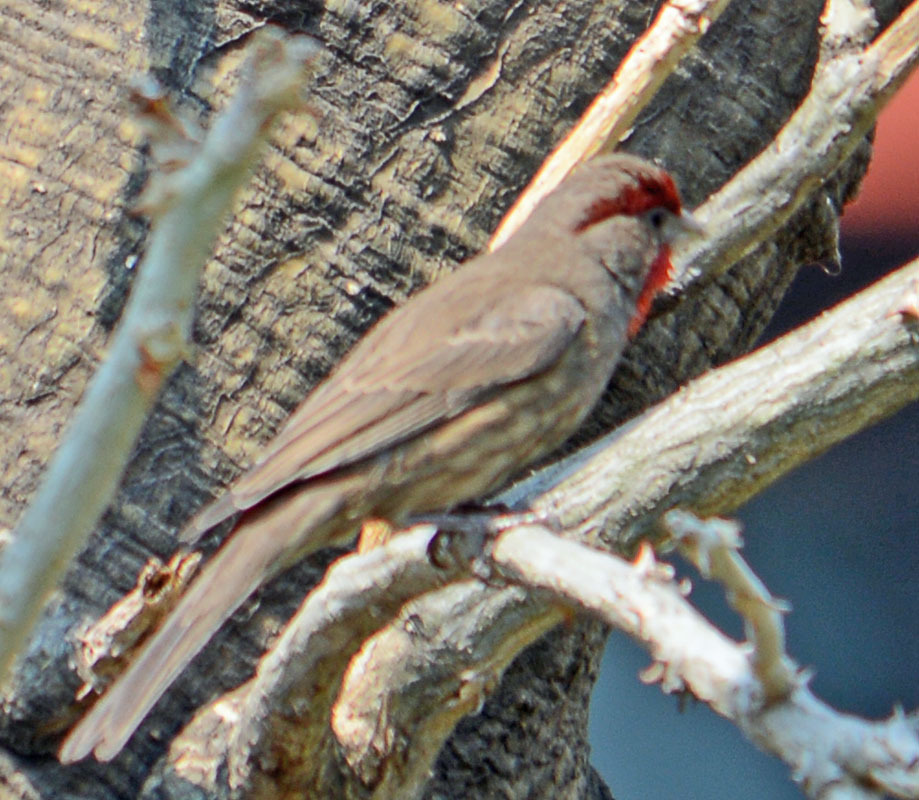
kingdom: Animalia
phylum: Chordata
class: Aves
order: Passeriformes
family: Fringillidae
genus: Haemorhous
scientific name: Haemorhous mexicanus
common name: House finch
